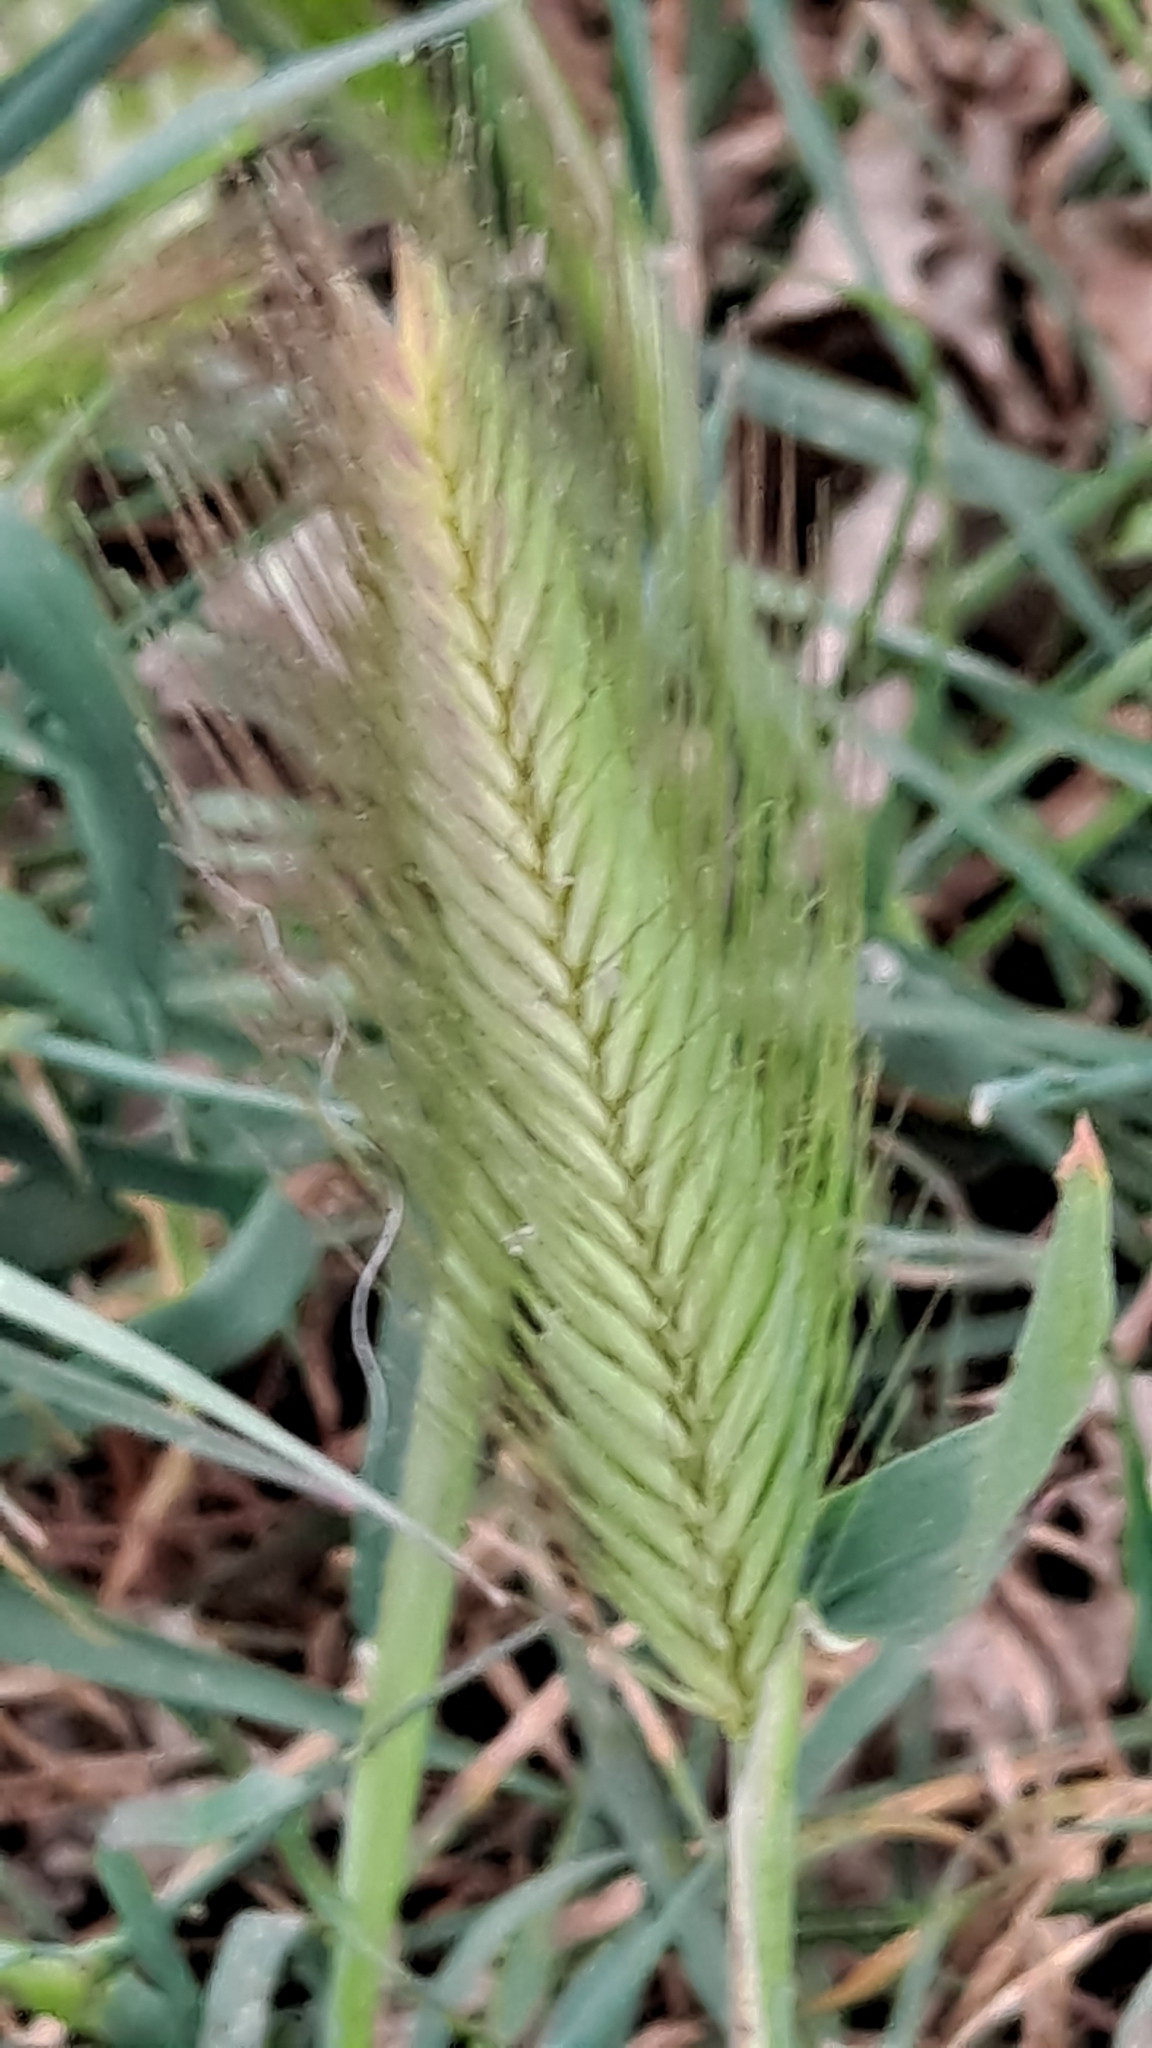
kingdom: Plantae
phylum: Tracheophyta
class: Liliopsida
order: Poales
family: Poaceae
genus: Hordeum
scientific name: Hordeum murinum
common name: Wall barley
